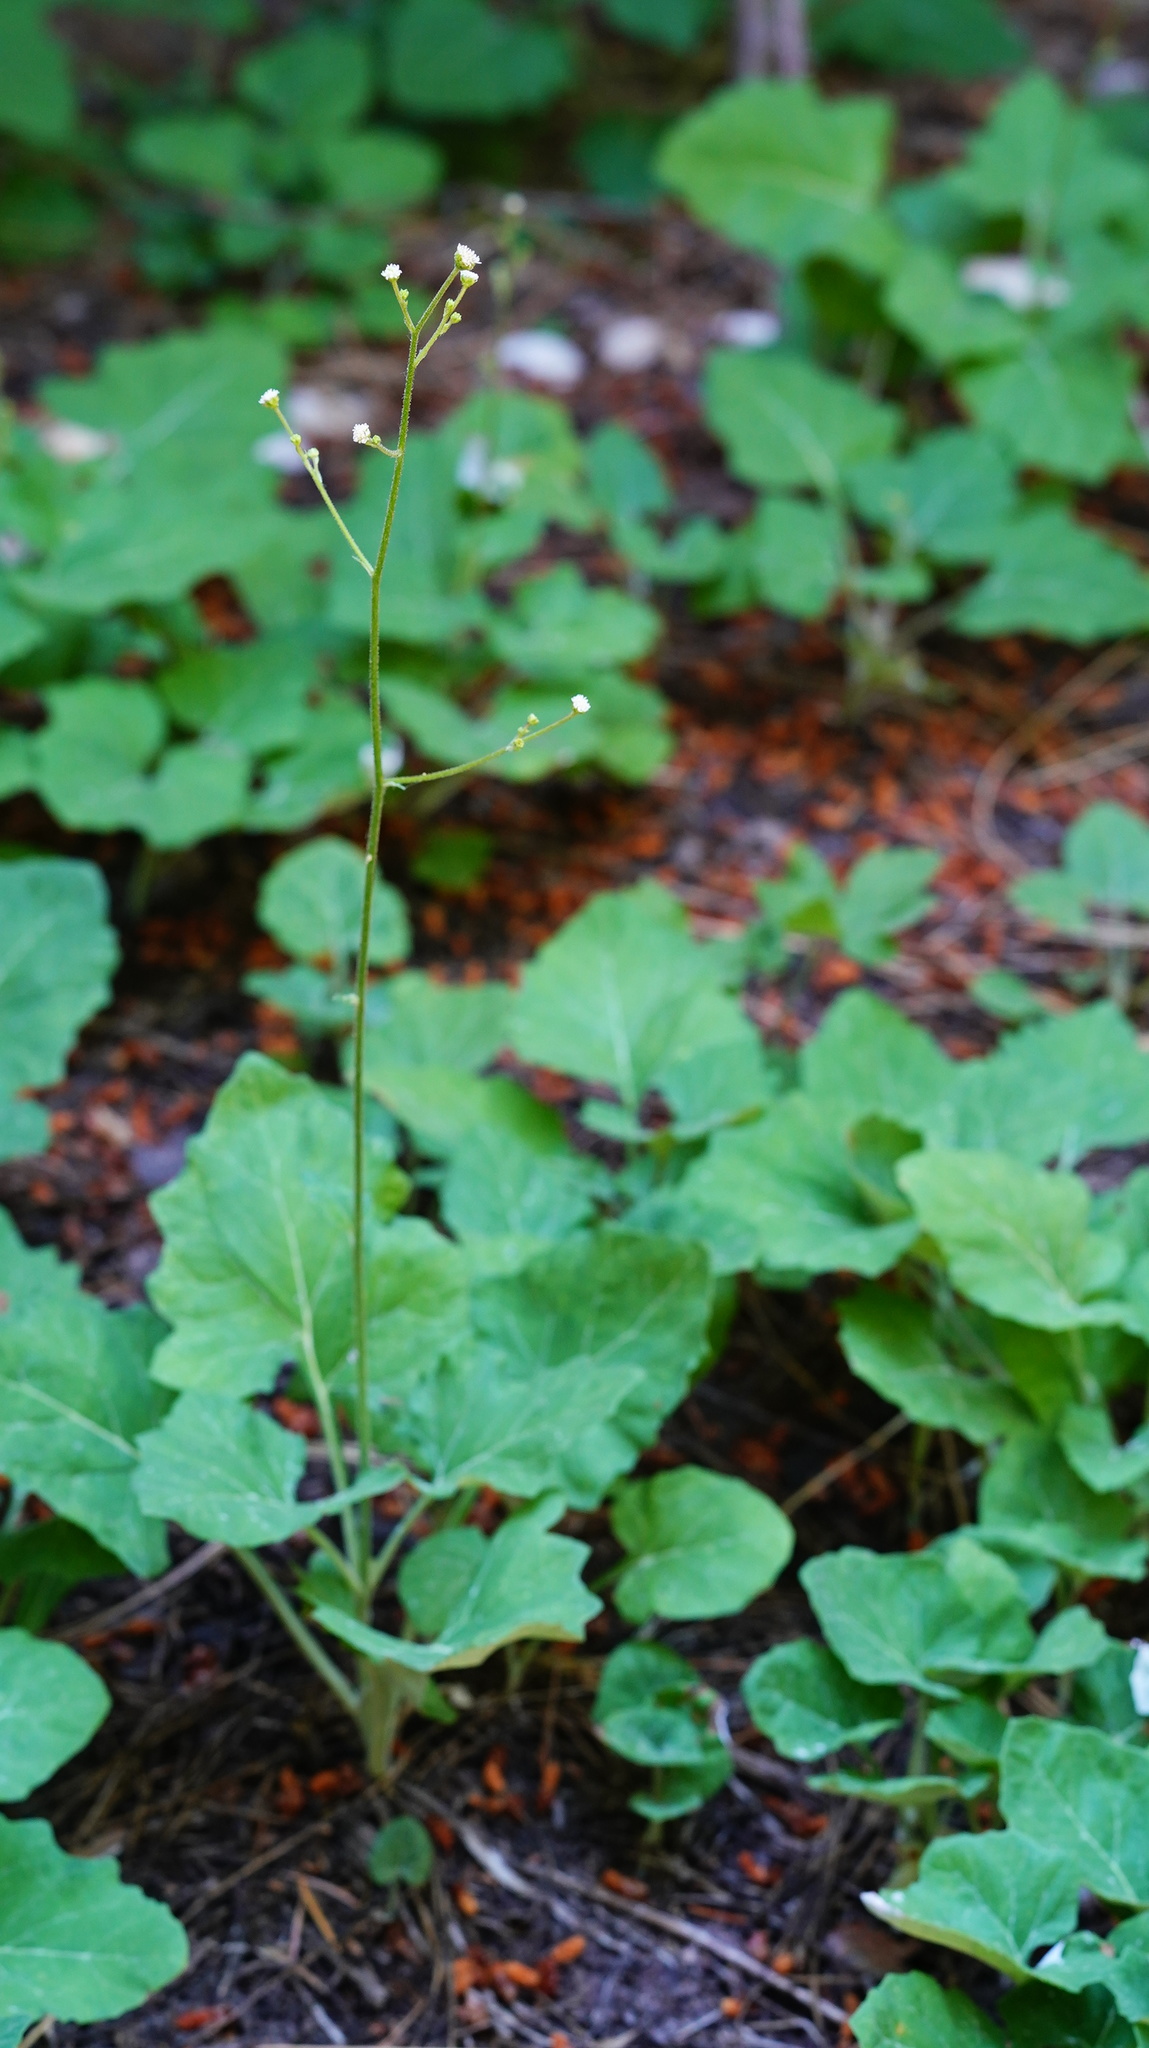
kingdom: Plantae
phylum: Tracheophyta
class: Magnoliopsida
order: Asterales
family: Asteraceae
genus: Adenocaulon
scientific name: Adenocaulon bicolor
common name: Trailplant
